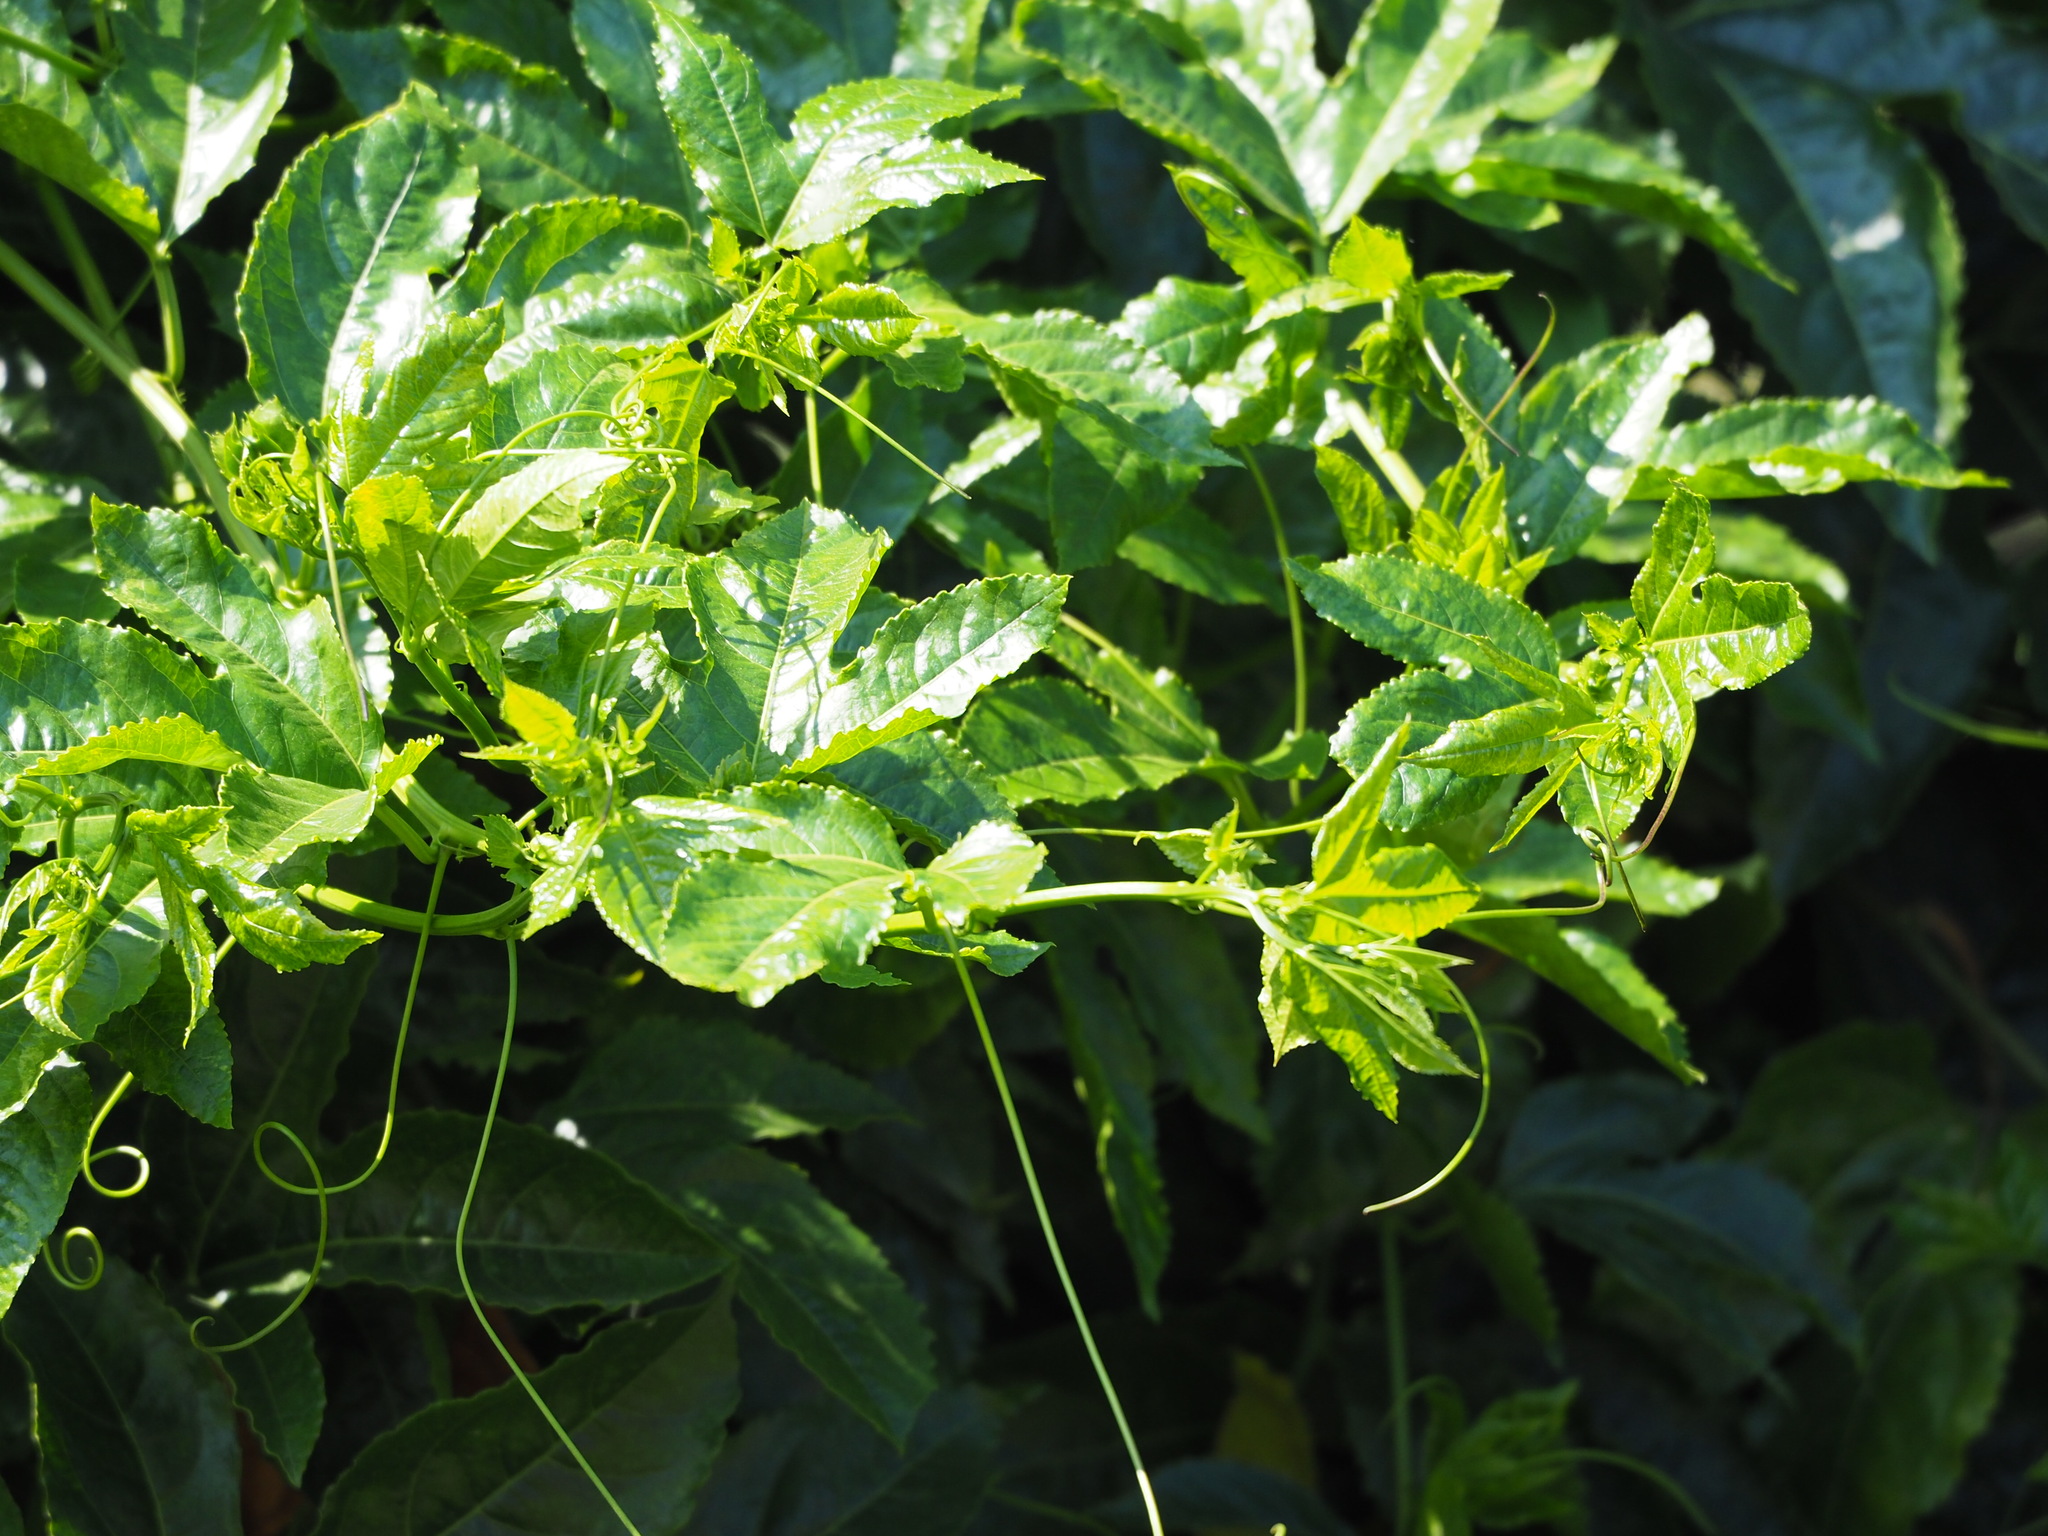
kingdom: Plantae
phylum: Tracheophyta
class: Magnoliopsida
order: Malpighiales
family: Passifloraceae
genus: Passiflora
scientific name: Passiflora edulis
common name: Purple granadilla
